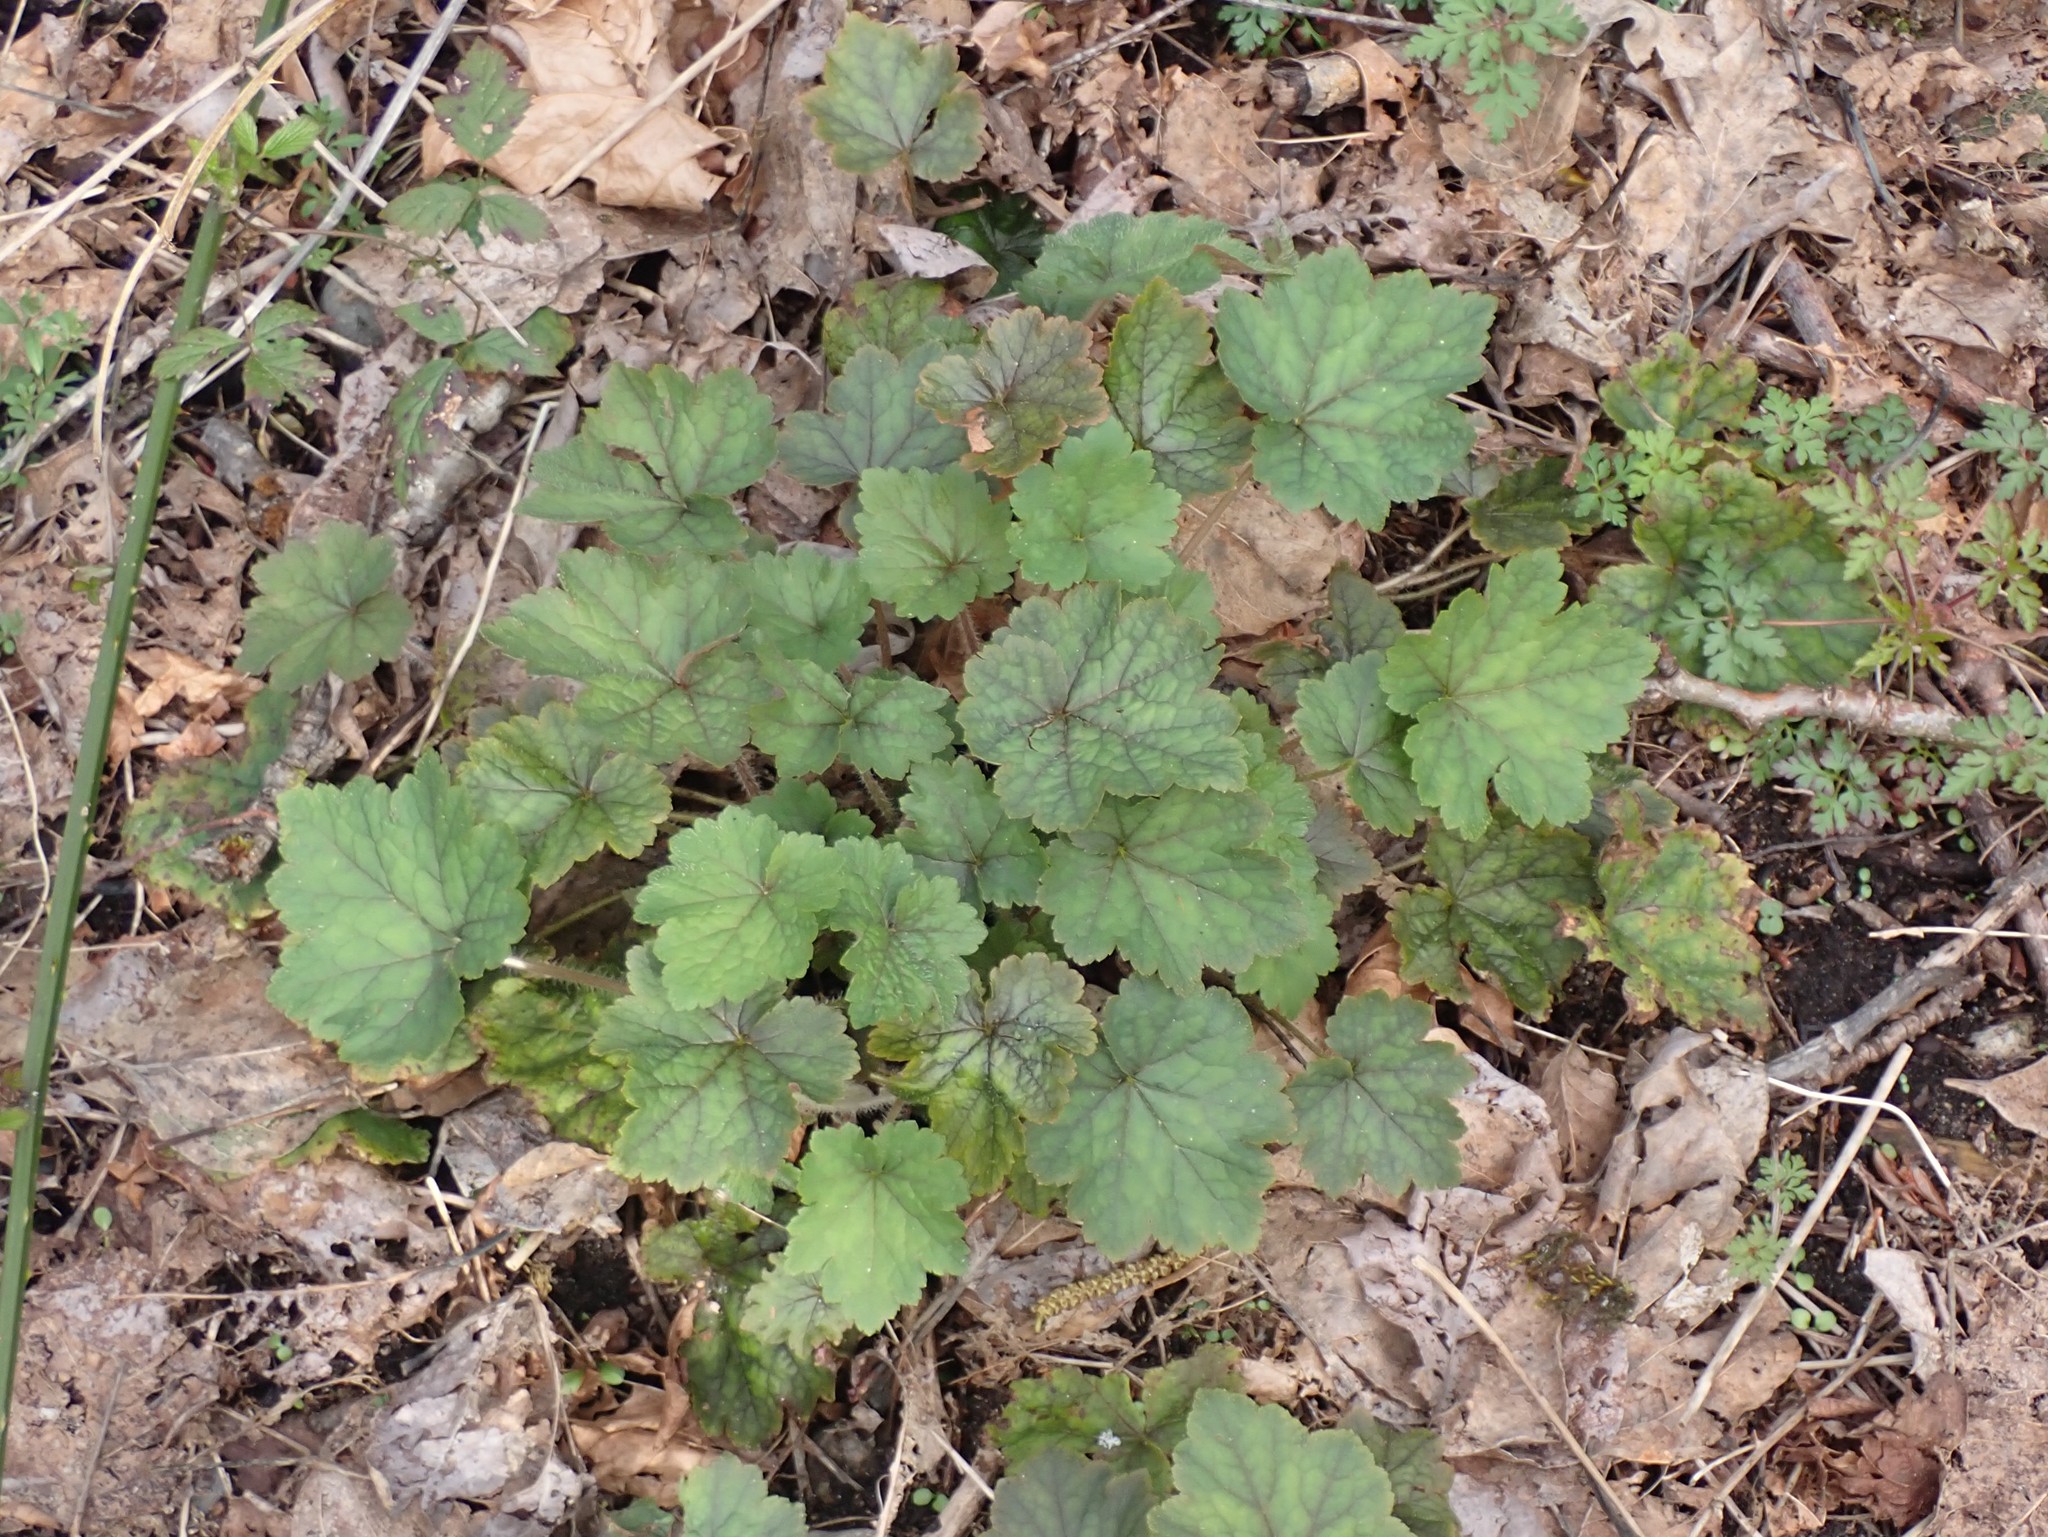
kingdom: Plantae
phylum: Tracheophyta
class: Magnoliopsida
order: Saxifragales
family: Saxifragaceae
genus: Tellima
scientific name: Tellima grandiflora
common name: Fringecups
